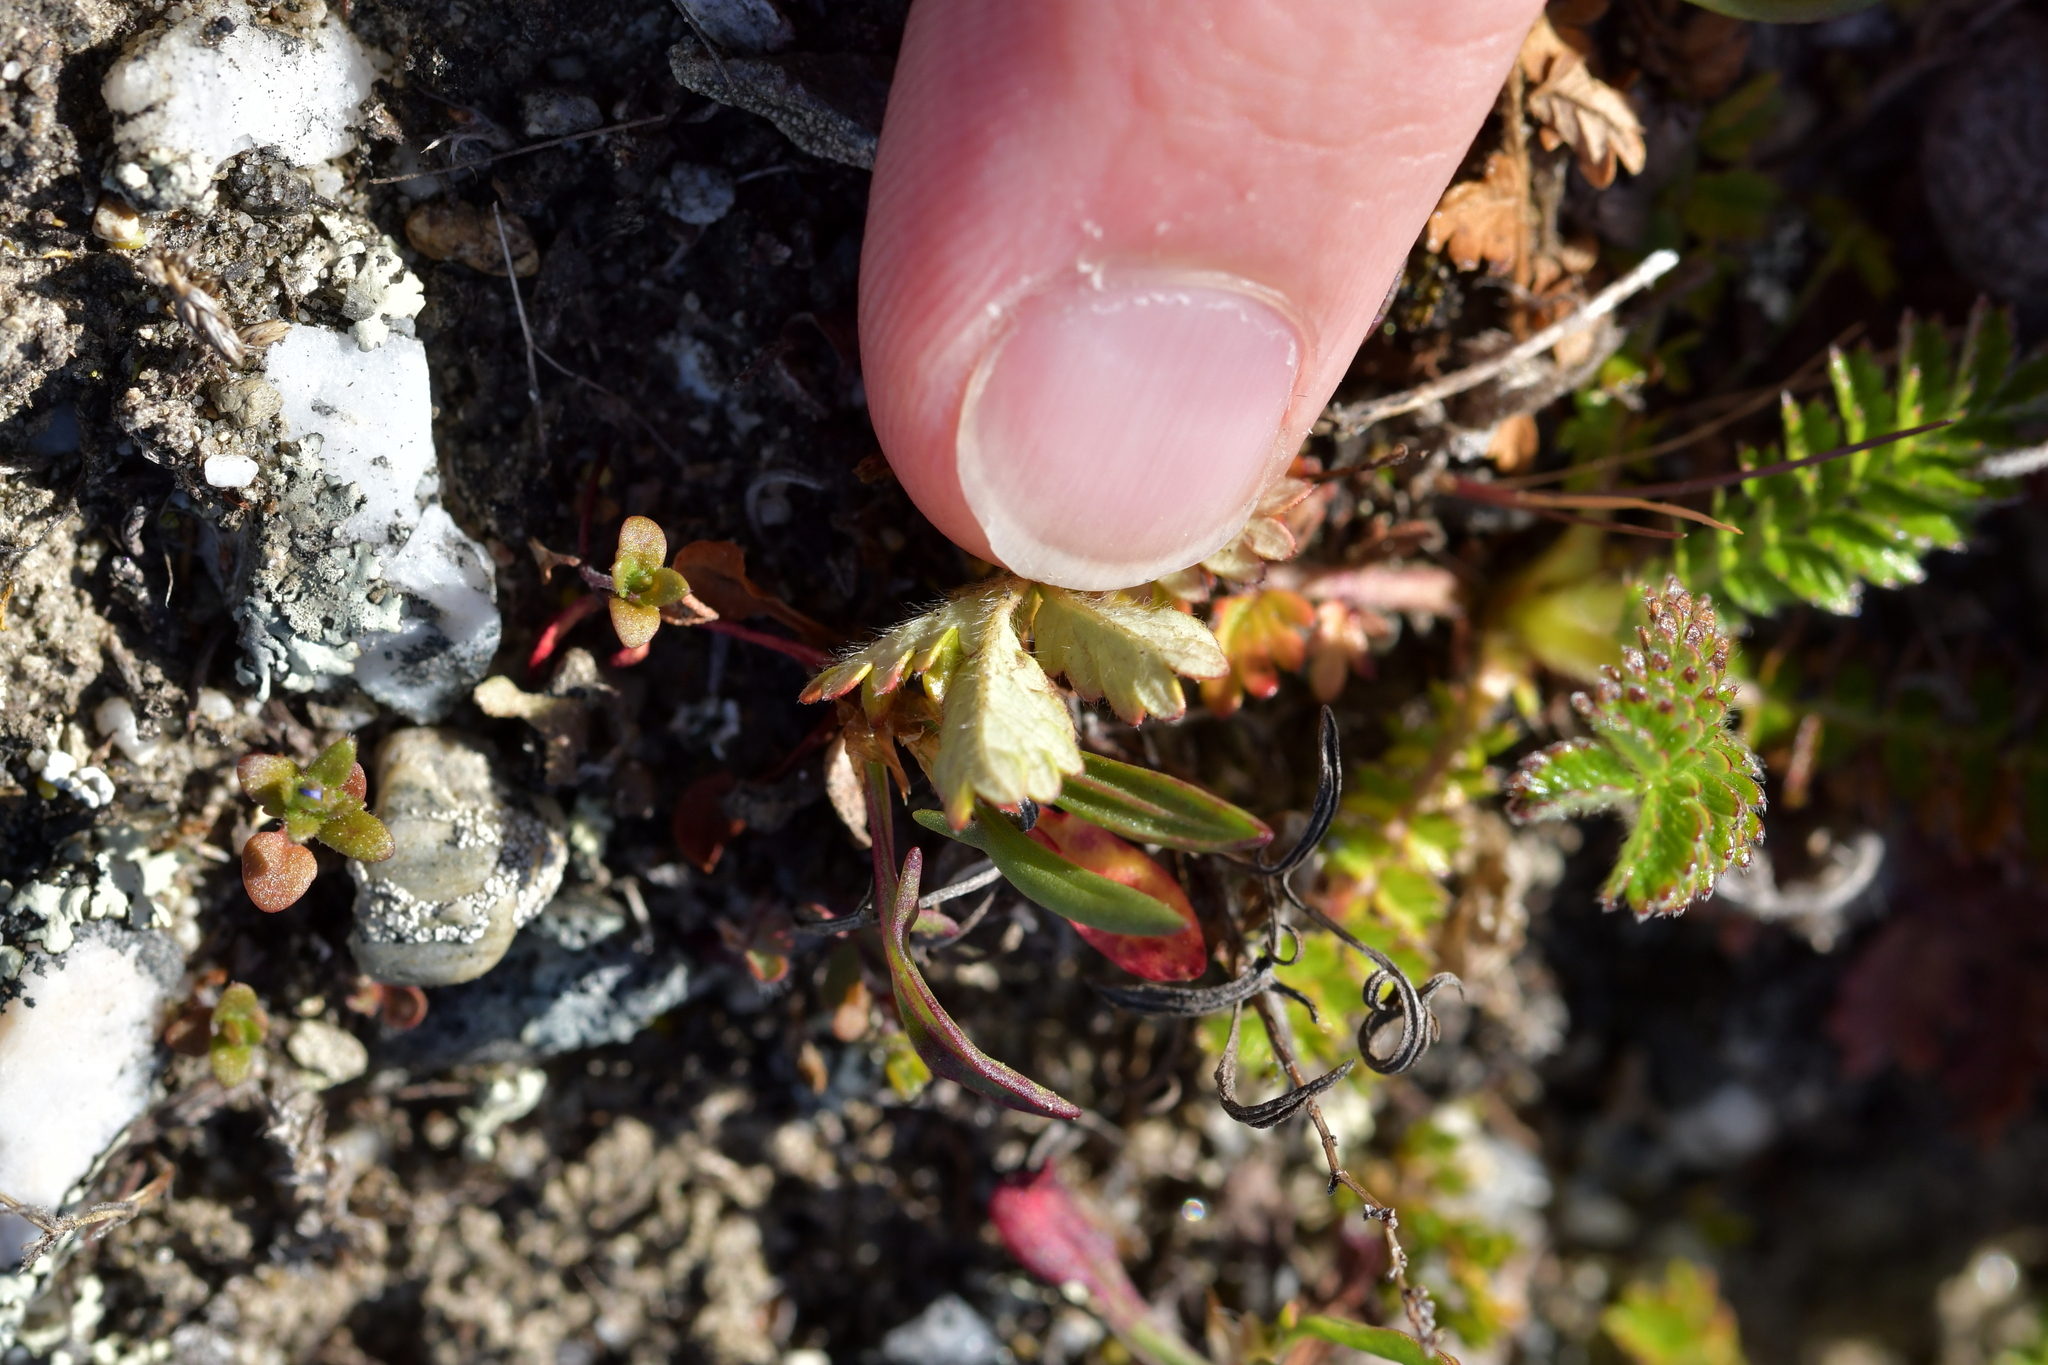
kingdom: Plantae
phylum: Tracheophyta
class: Magnoliopsida
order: Rosales
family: Rosaceae
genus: Acaena
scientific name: Acaena agnipila
